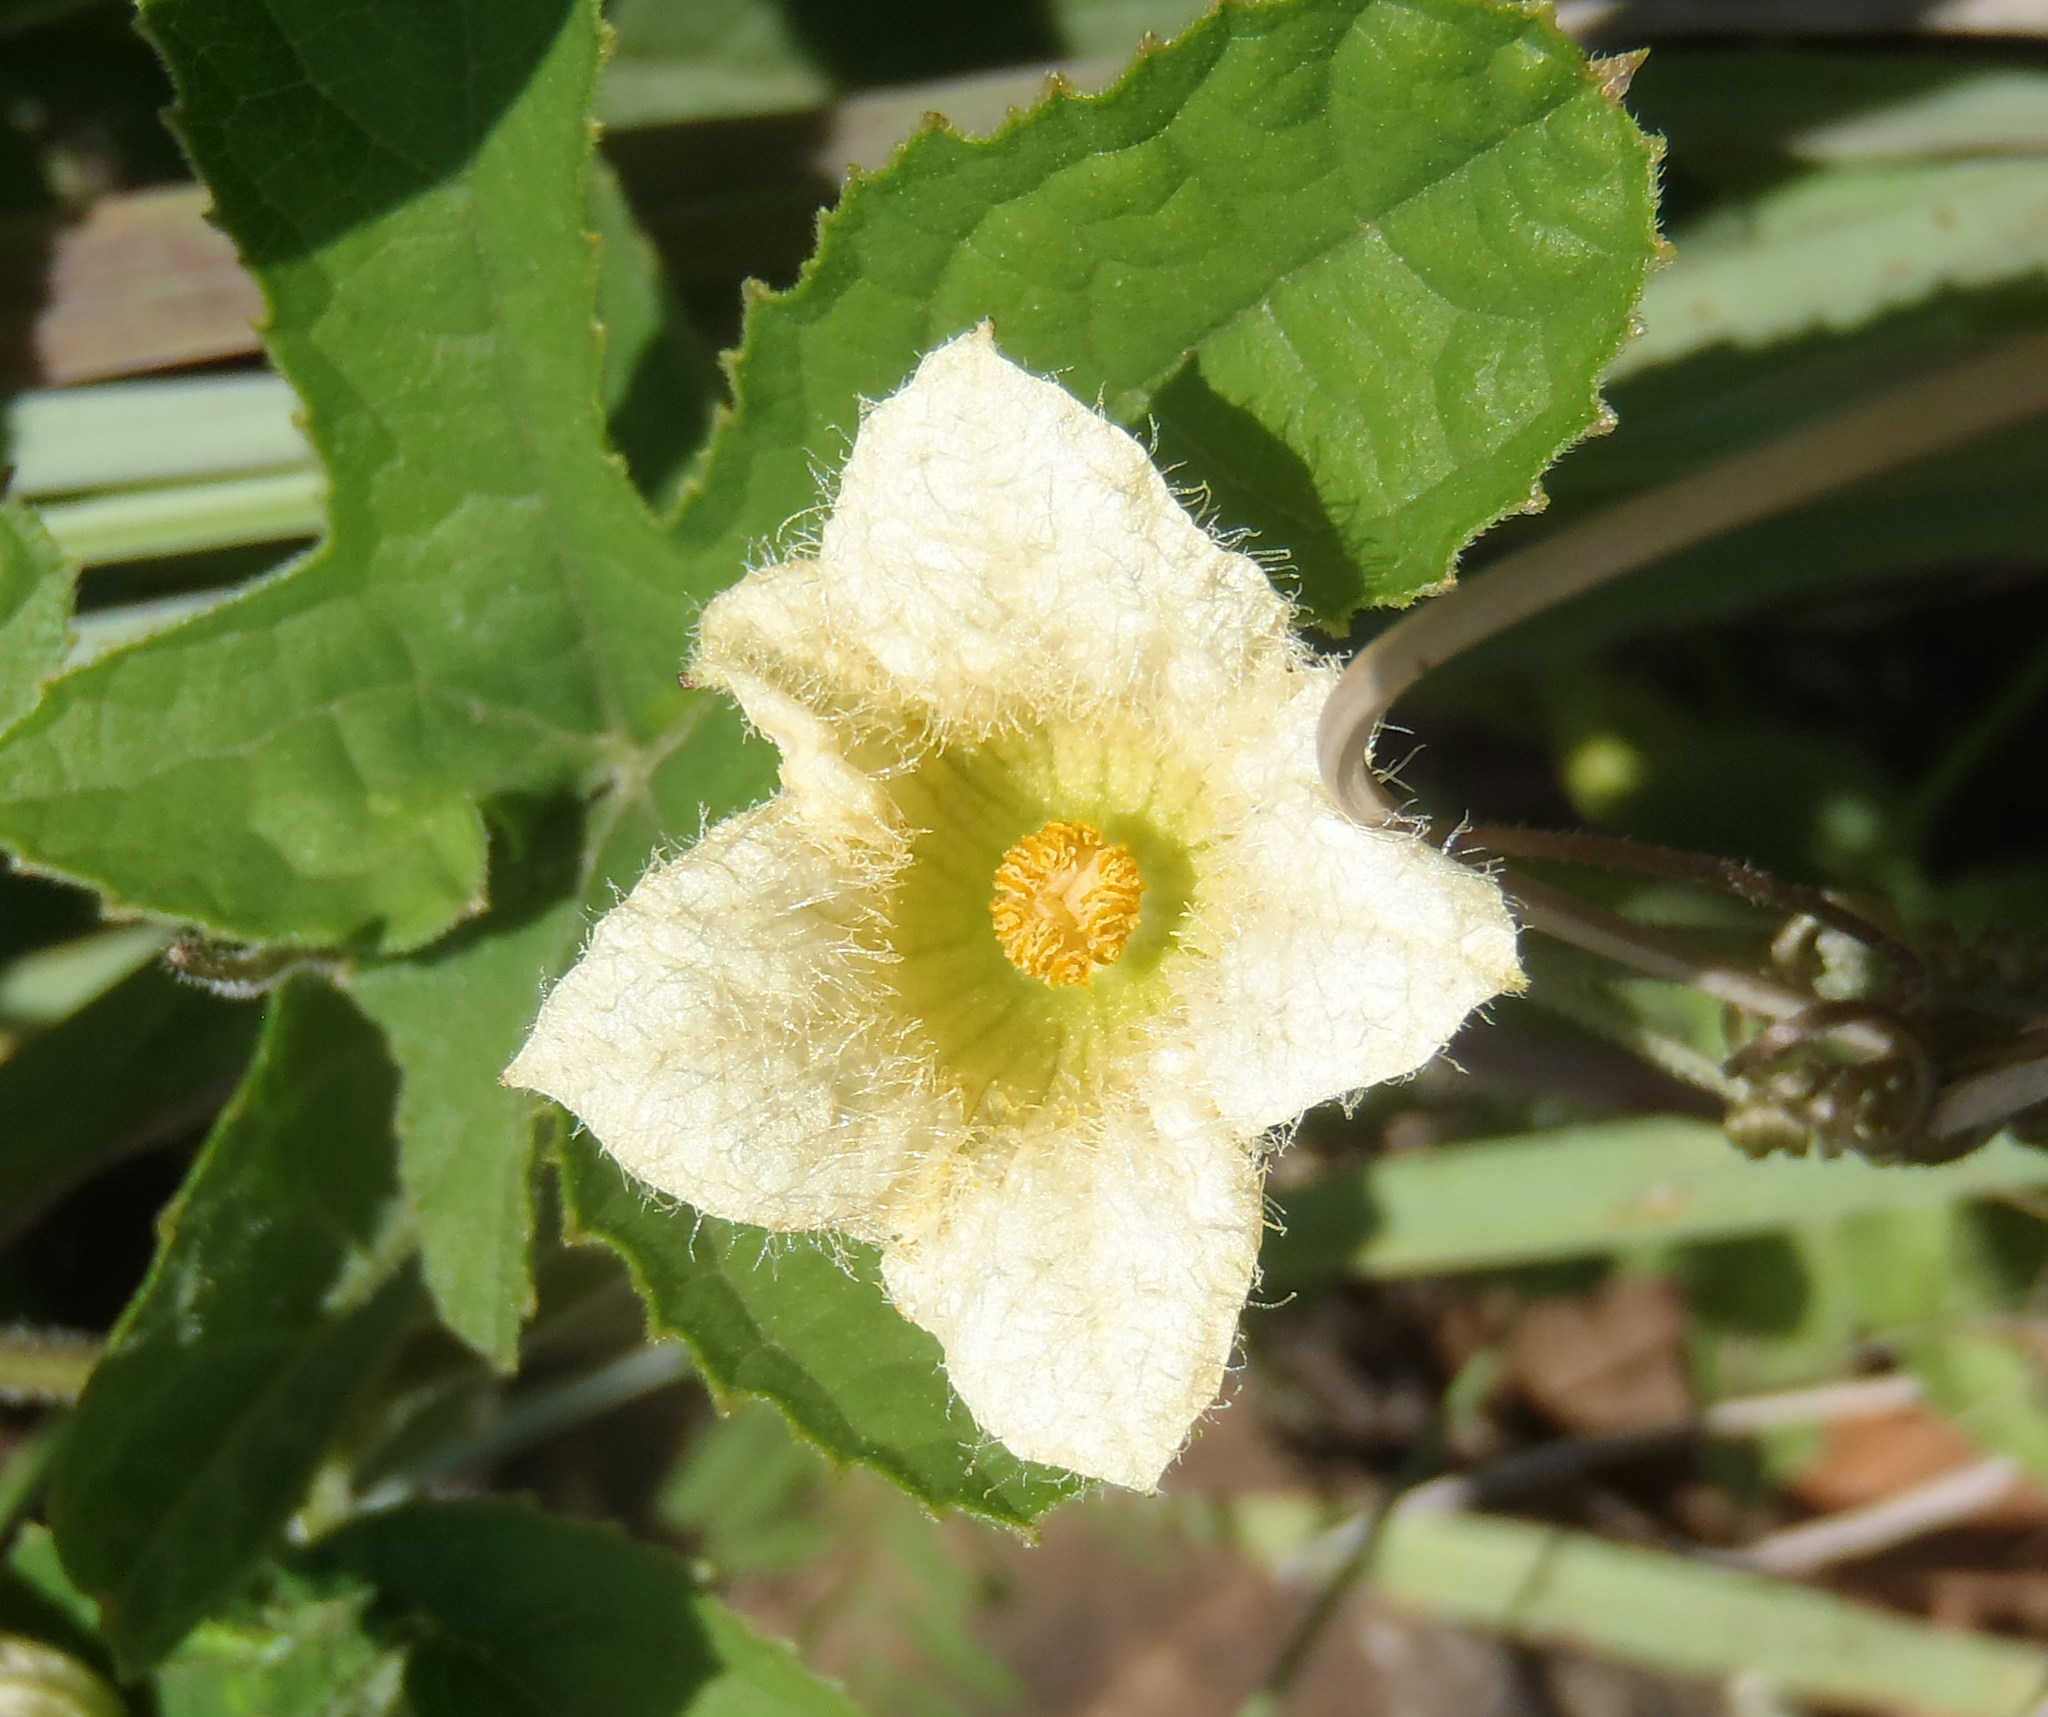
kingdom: Plantae
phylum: Tracheophyta
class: Magnoliopsida
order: Cucurbitales
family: Cucurbitaceae
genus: Coccinia
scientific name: Coccinia adoensis
